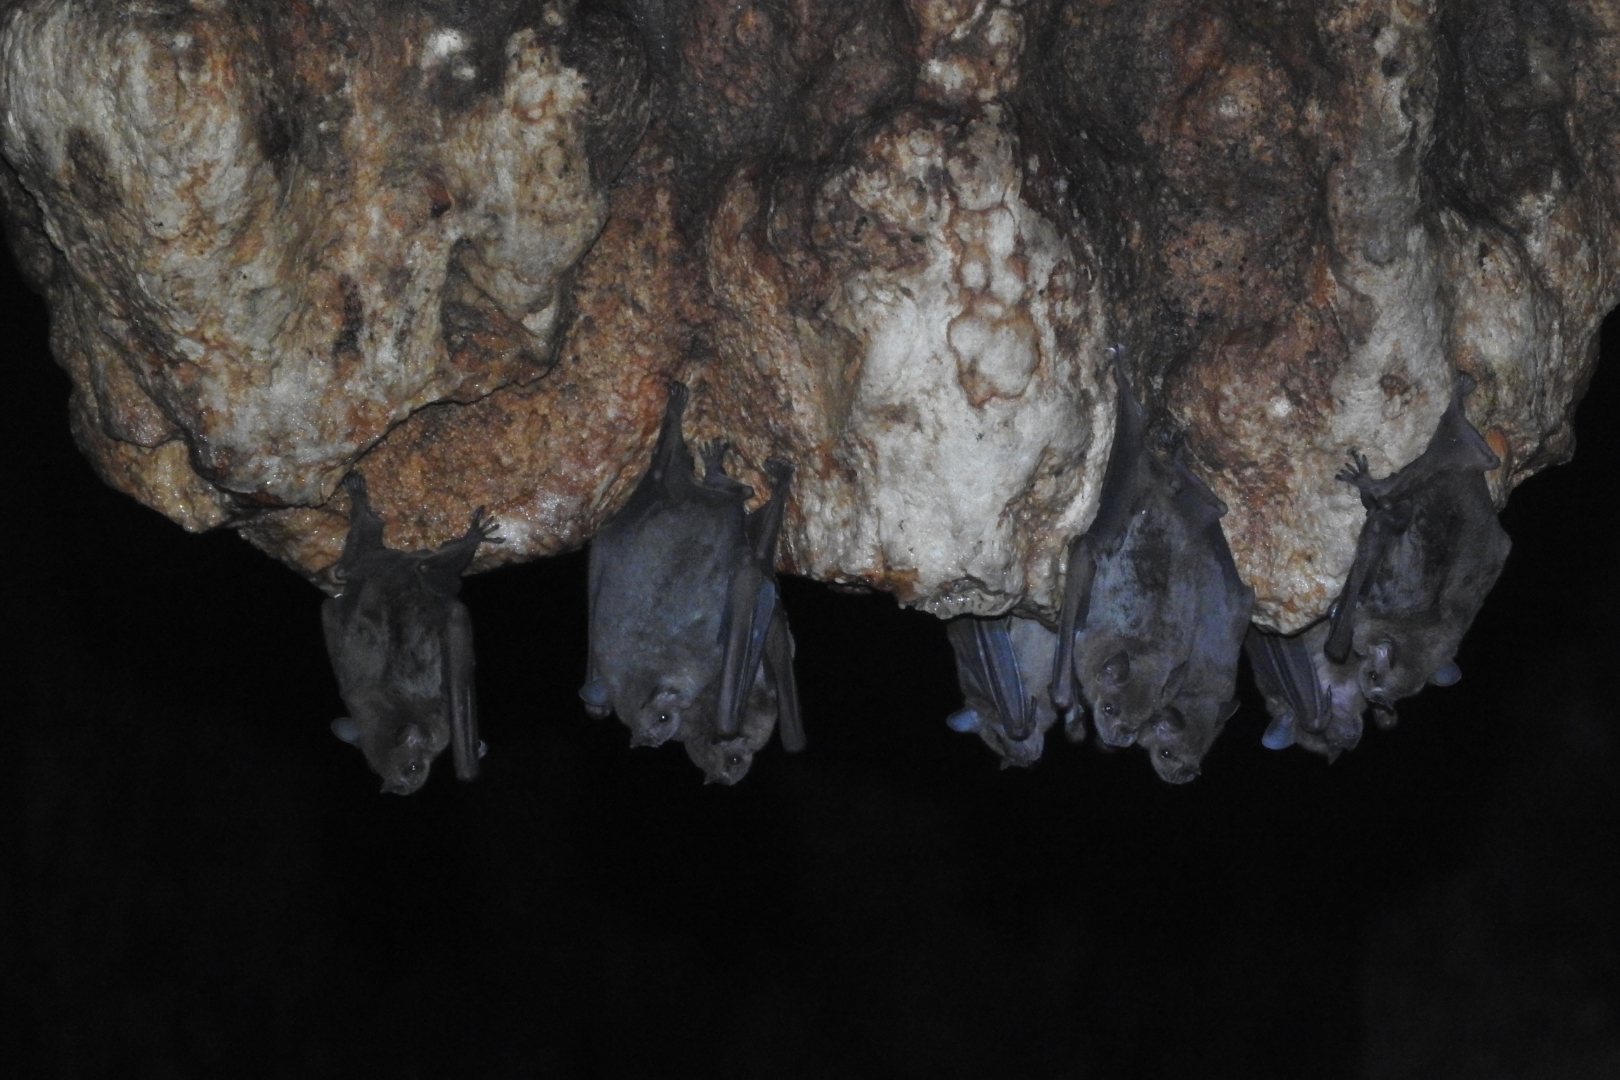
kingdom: Animalia
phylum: Chordata
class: Mammalia
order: Chiroptera
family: Phyllostomidae
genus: Artibeus
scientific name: Artibeus jamaicensis
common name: Jamaican fruit-eating bat
